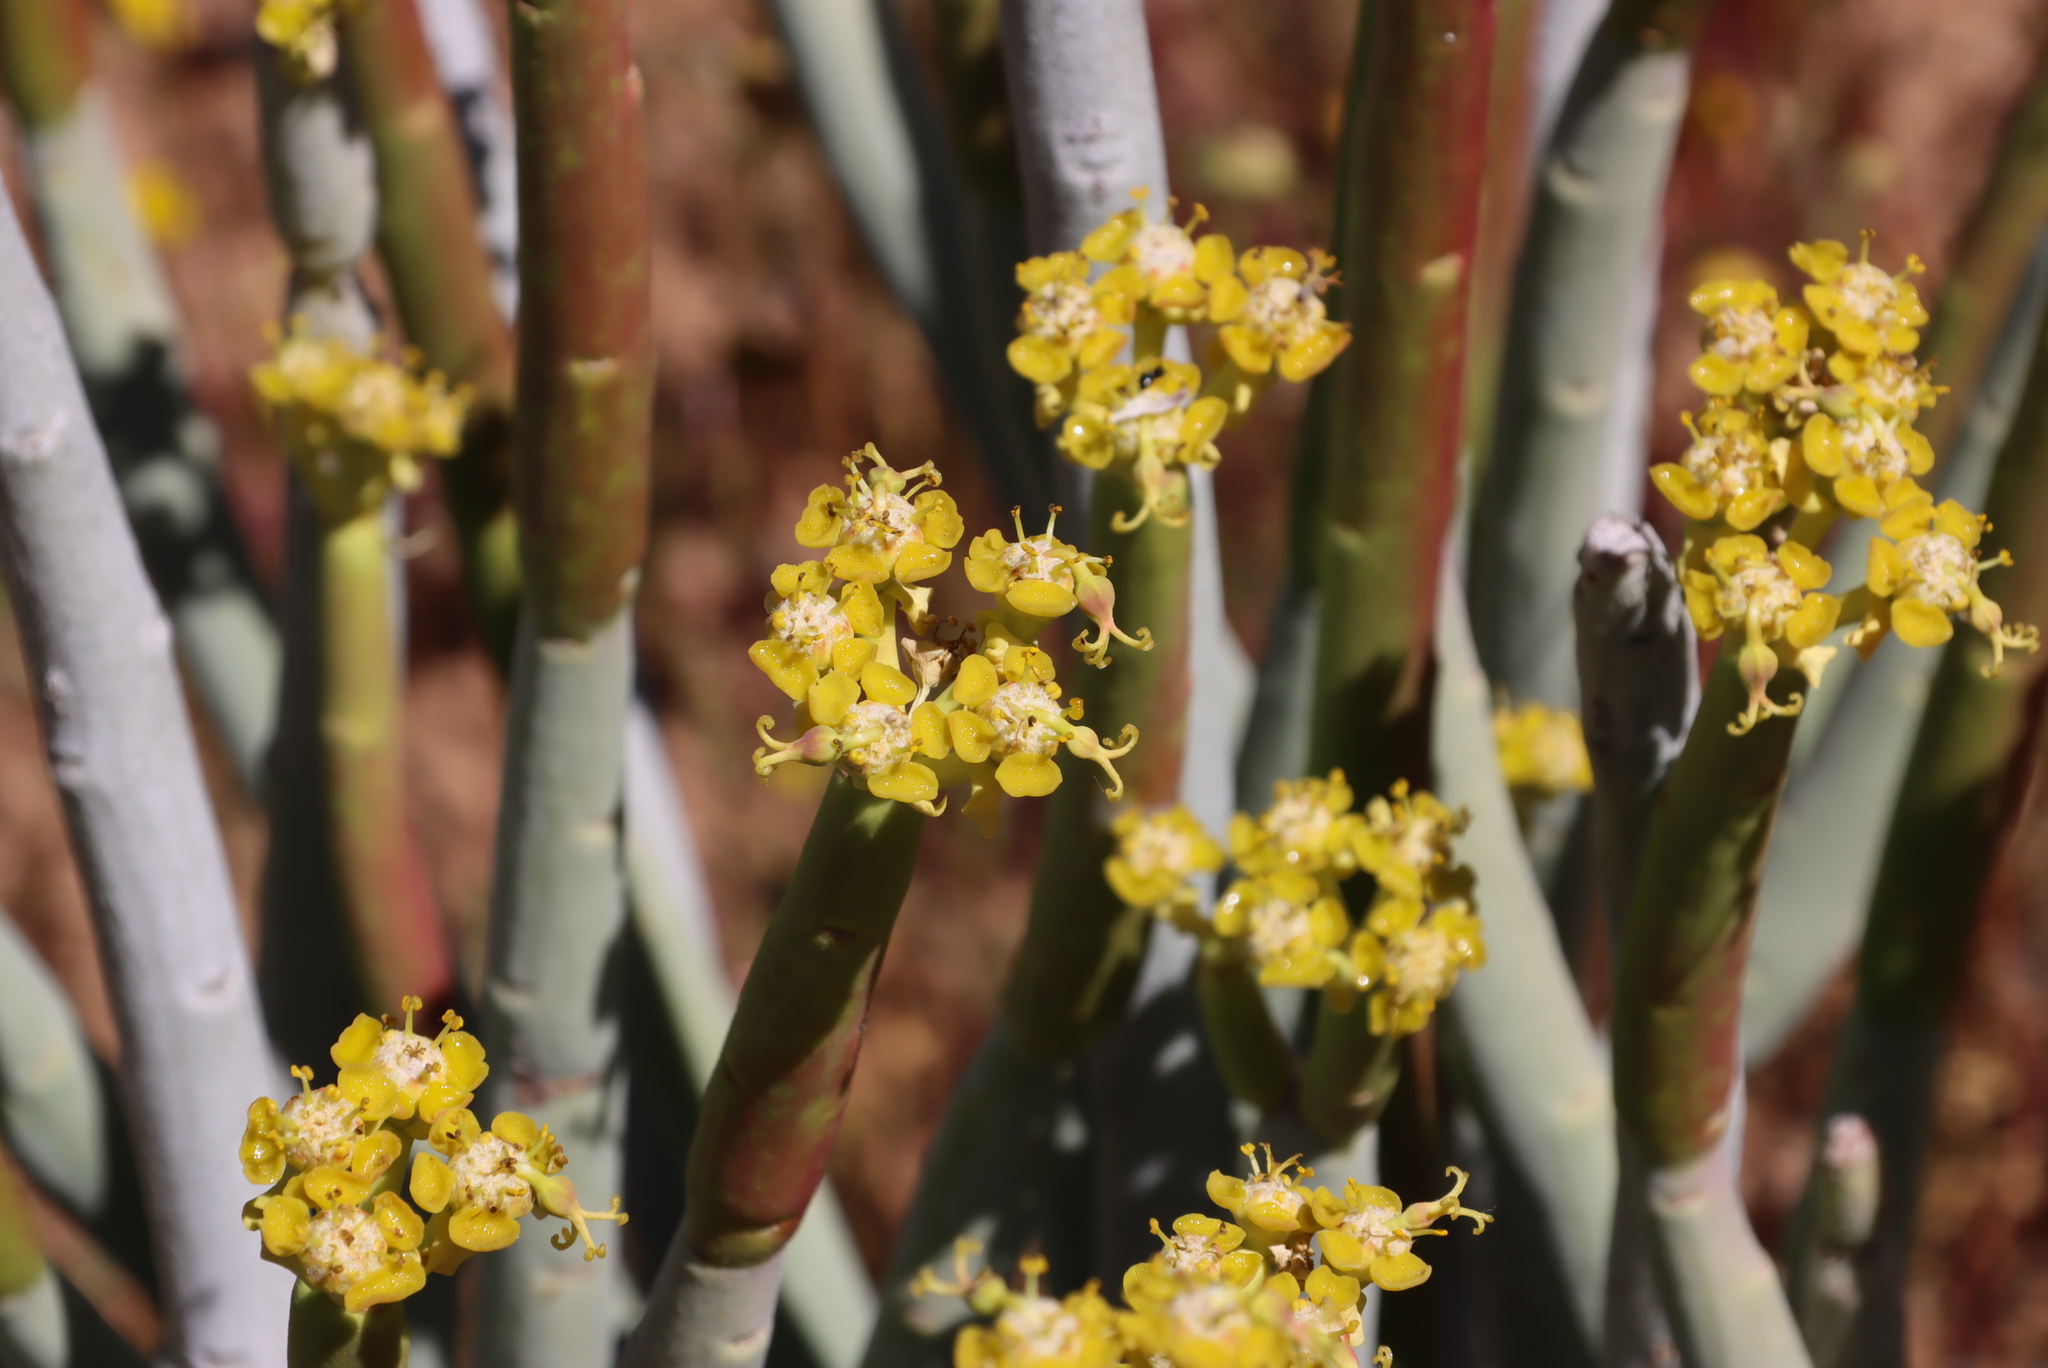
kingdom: Plantae
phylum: Tracheophyta
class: Magnoliopsida
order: Malpighiales
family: Euphorbiaceae
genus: Euphorbia
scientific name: Euphorbia mauritanica
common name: Jackal's-food
